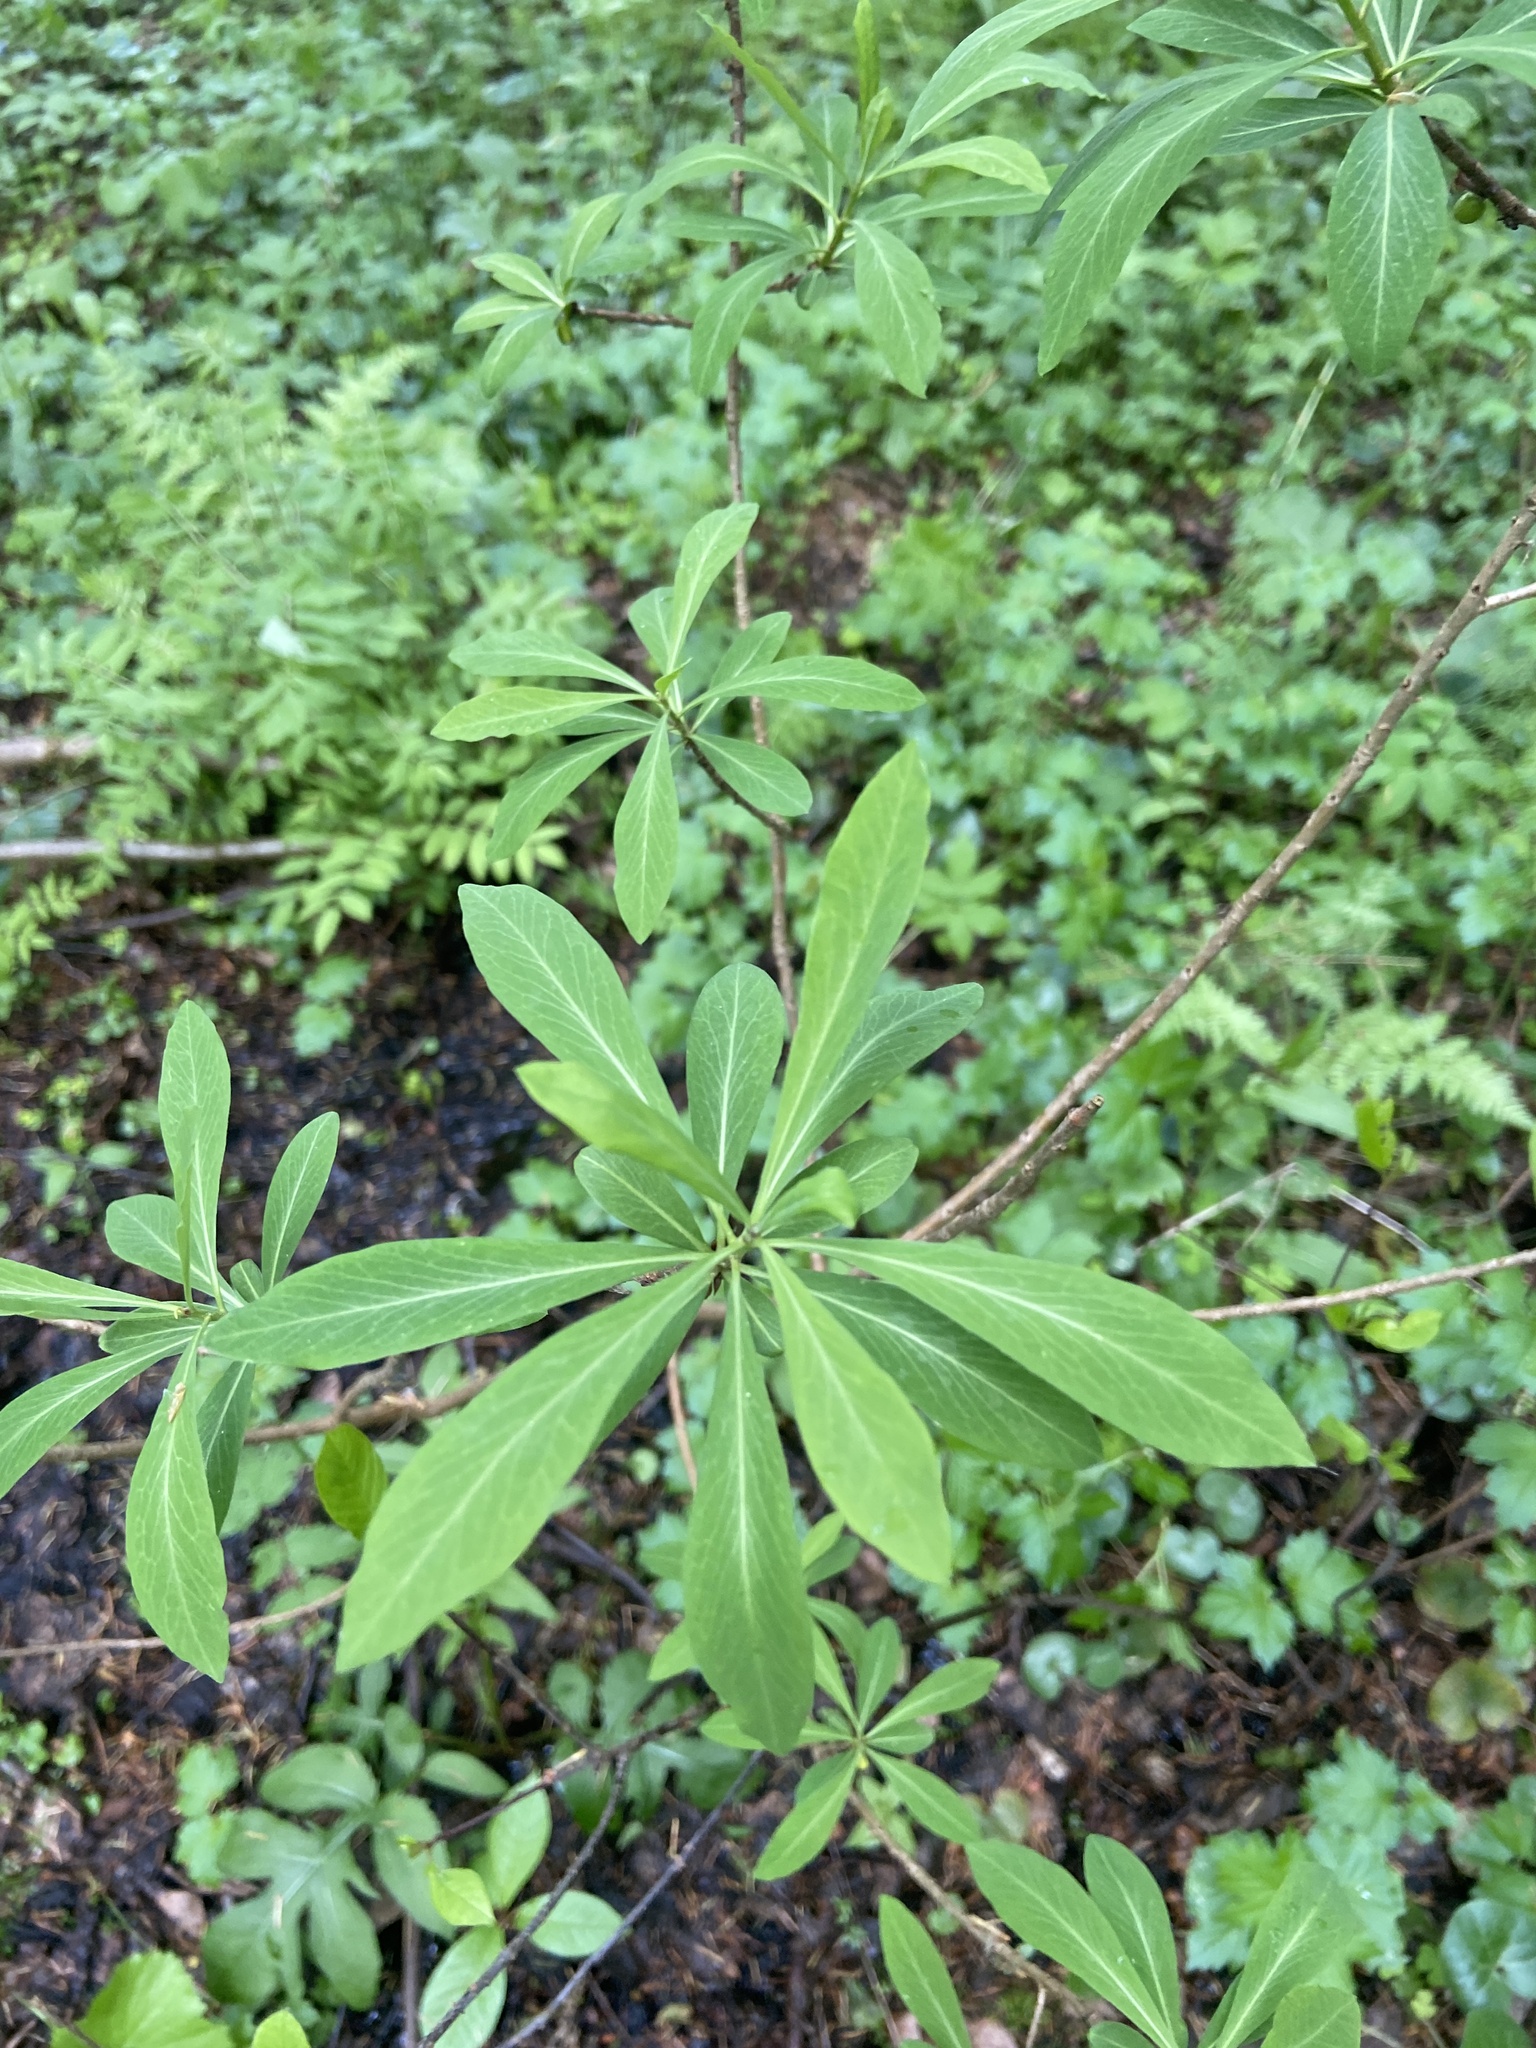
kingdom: Plantae
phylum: Tracheophyta
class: Magnoliopsida
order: Malvales
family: Thymelaeaceae
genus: Daphne
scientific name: Daphne mezereum
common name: Mezereon
